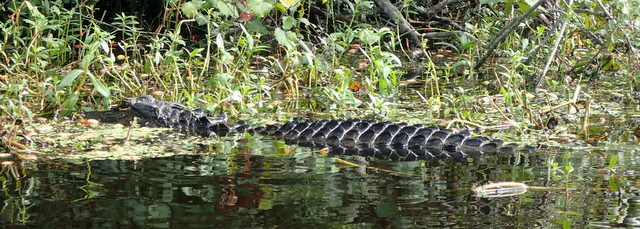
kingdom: Animalia
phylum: Chordata
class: Crocodylia
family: Alligatoridae
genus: Alligator
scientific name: Alligator mississippiensis
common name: American alligator
